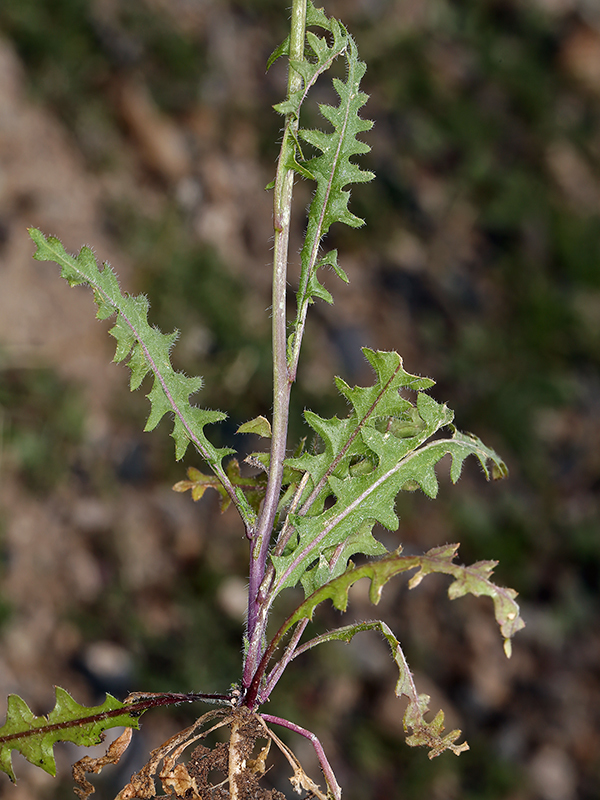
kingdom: Plantae
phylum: Tracheophyta
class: Magnoliopsida
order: Brassicales
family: Brassicaceae
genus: Streptanthus
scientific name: Streptanthus lasiophyllus
